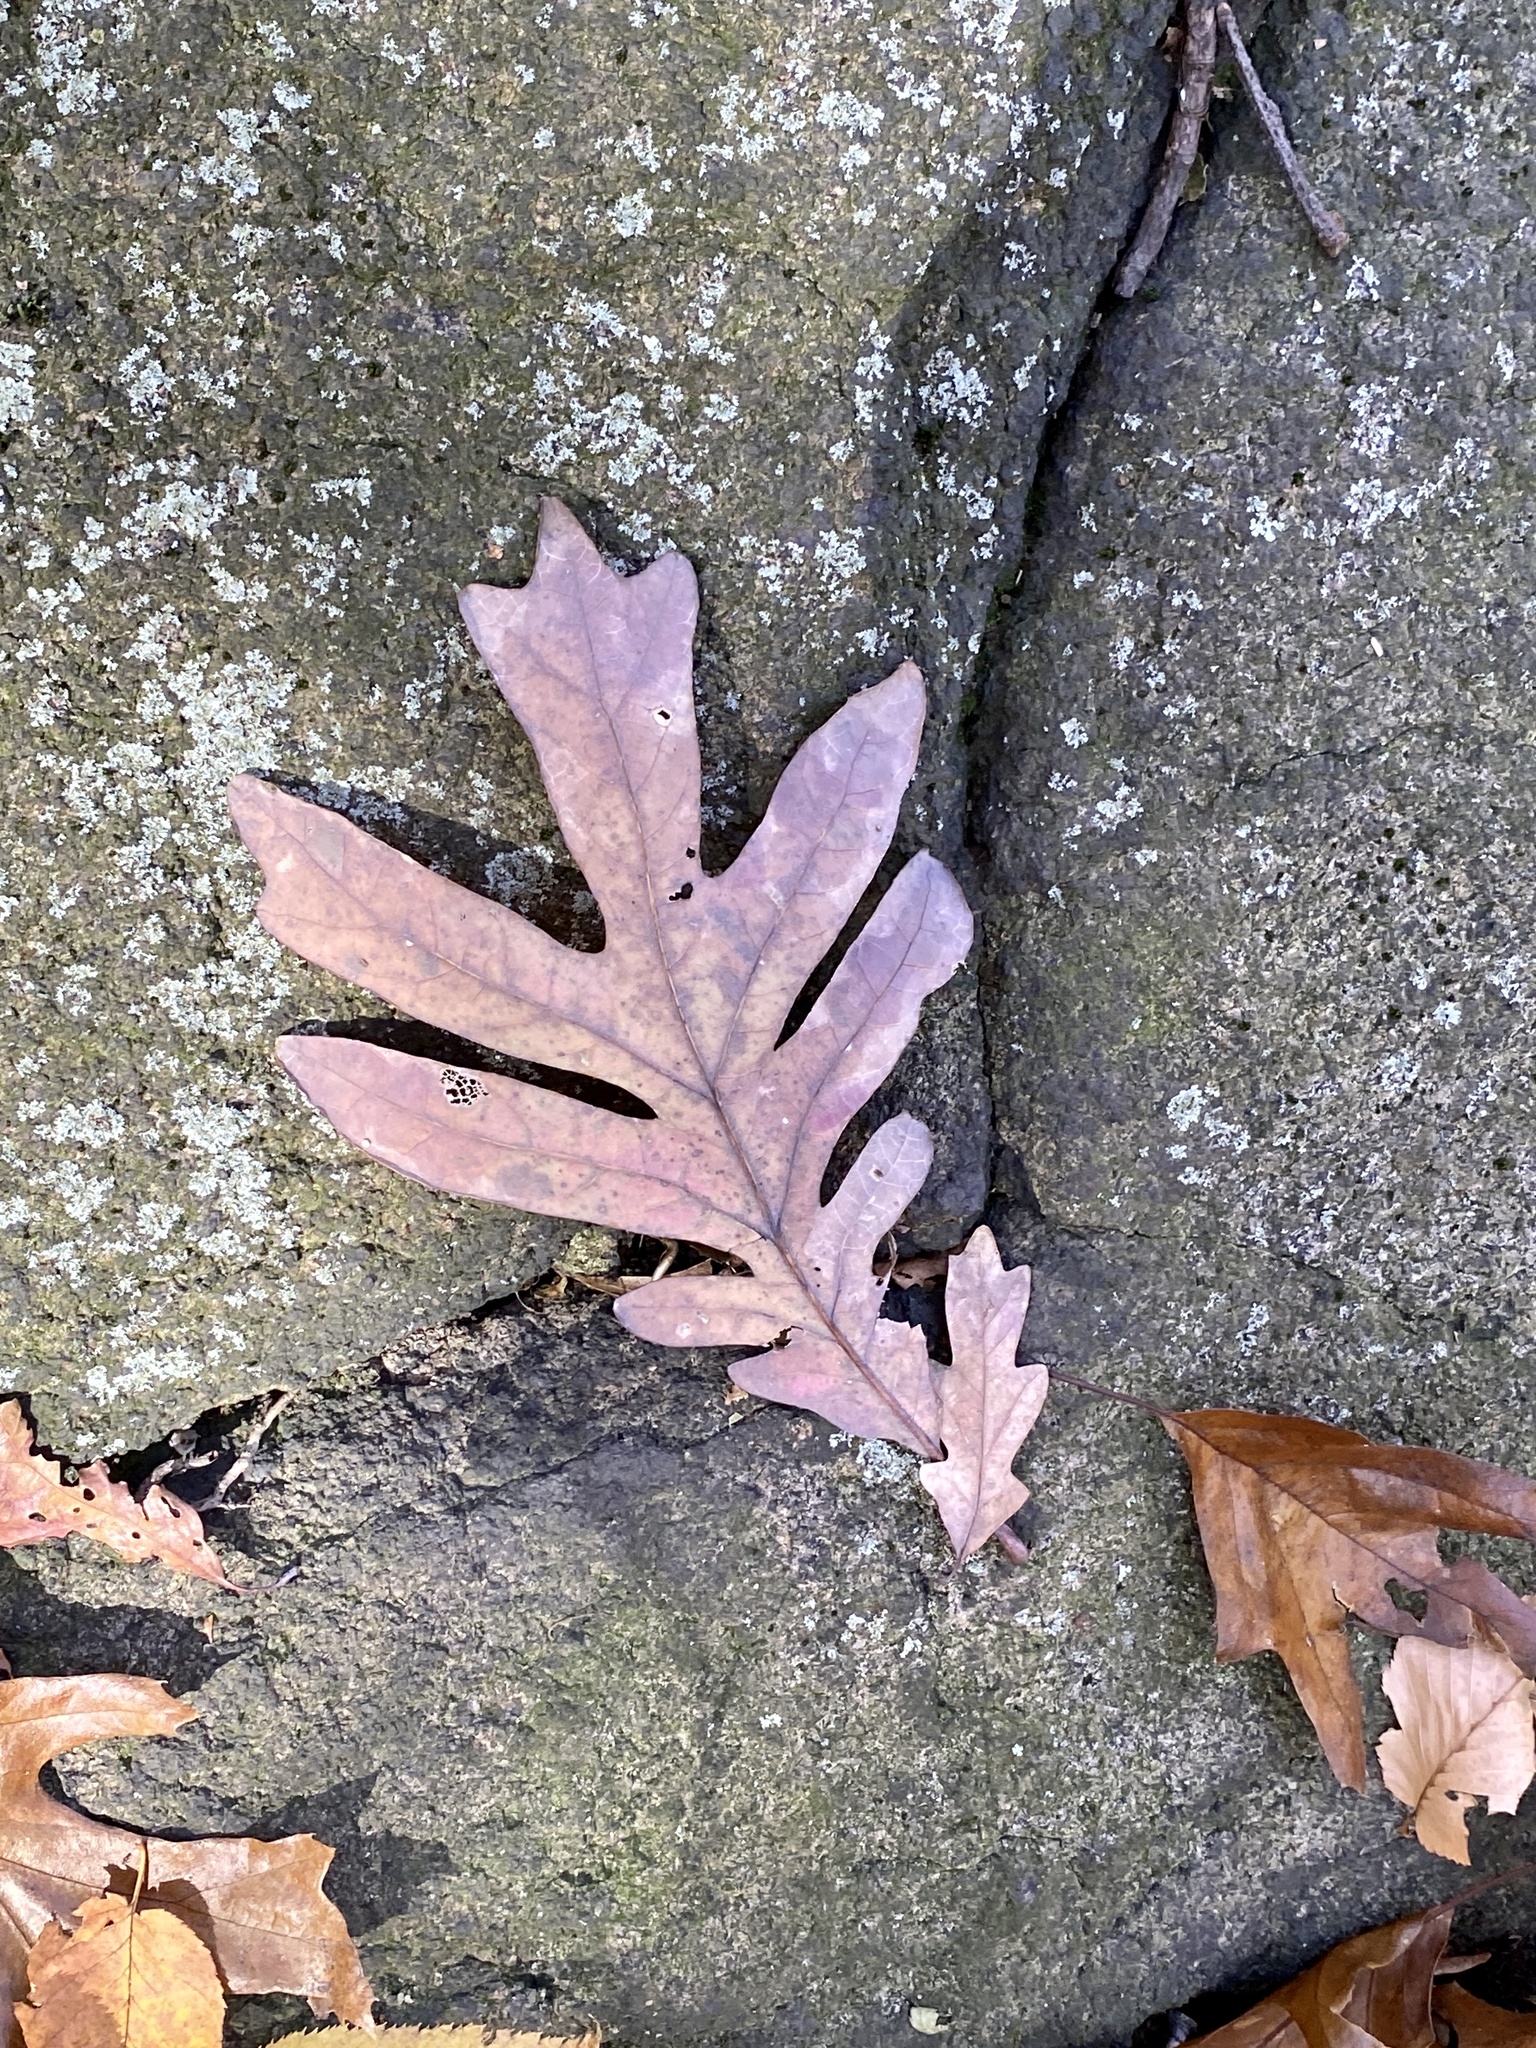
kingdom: Plantae
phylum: Tracheophyta
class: Magnoliopsida
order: Fagales
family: Fagaceae
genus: Quercus
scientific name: Quercus alba
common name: White oak
